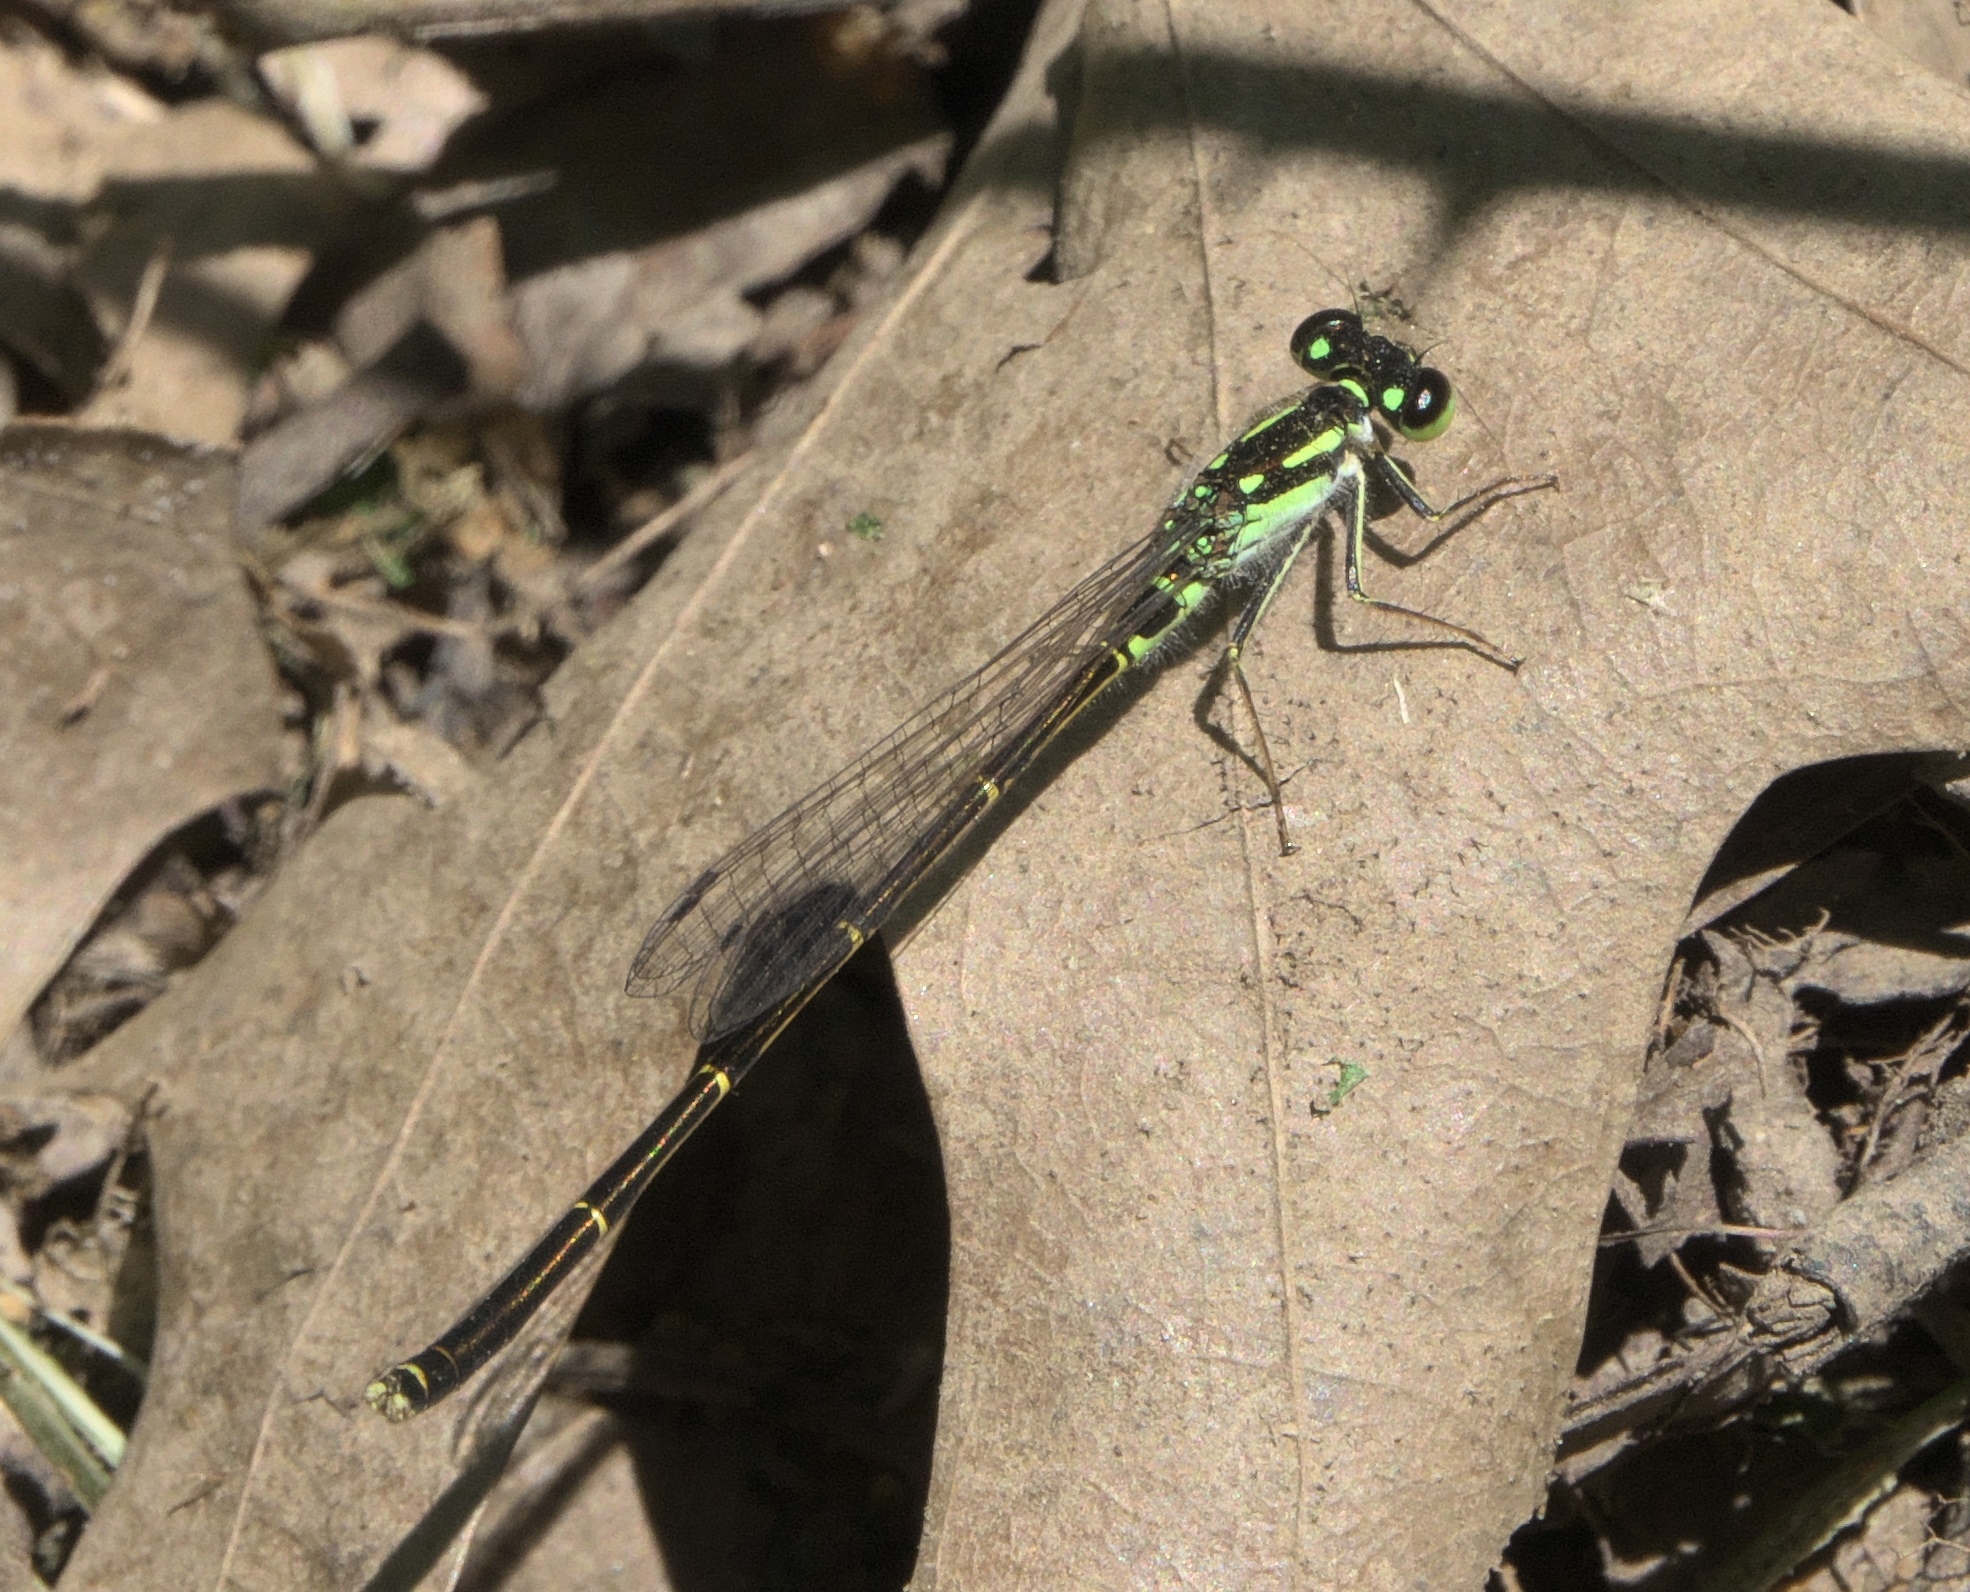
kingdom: Animalia
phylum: Arthropoda
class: Insecta
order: Odonata
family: Coenagrionidae
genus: Ischnura
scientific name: Ischnura posita
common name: Fragile forktail
